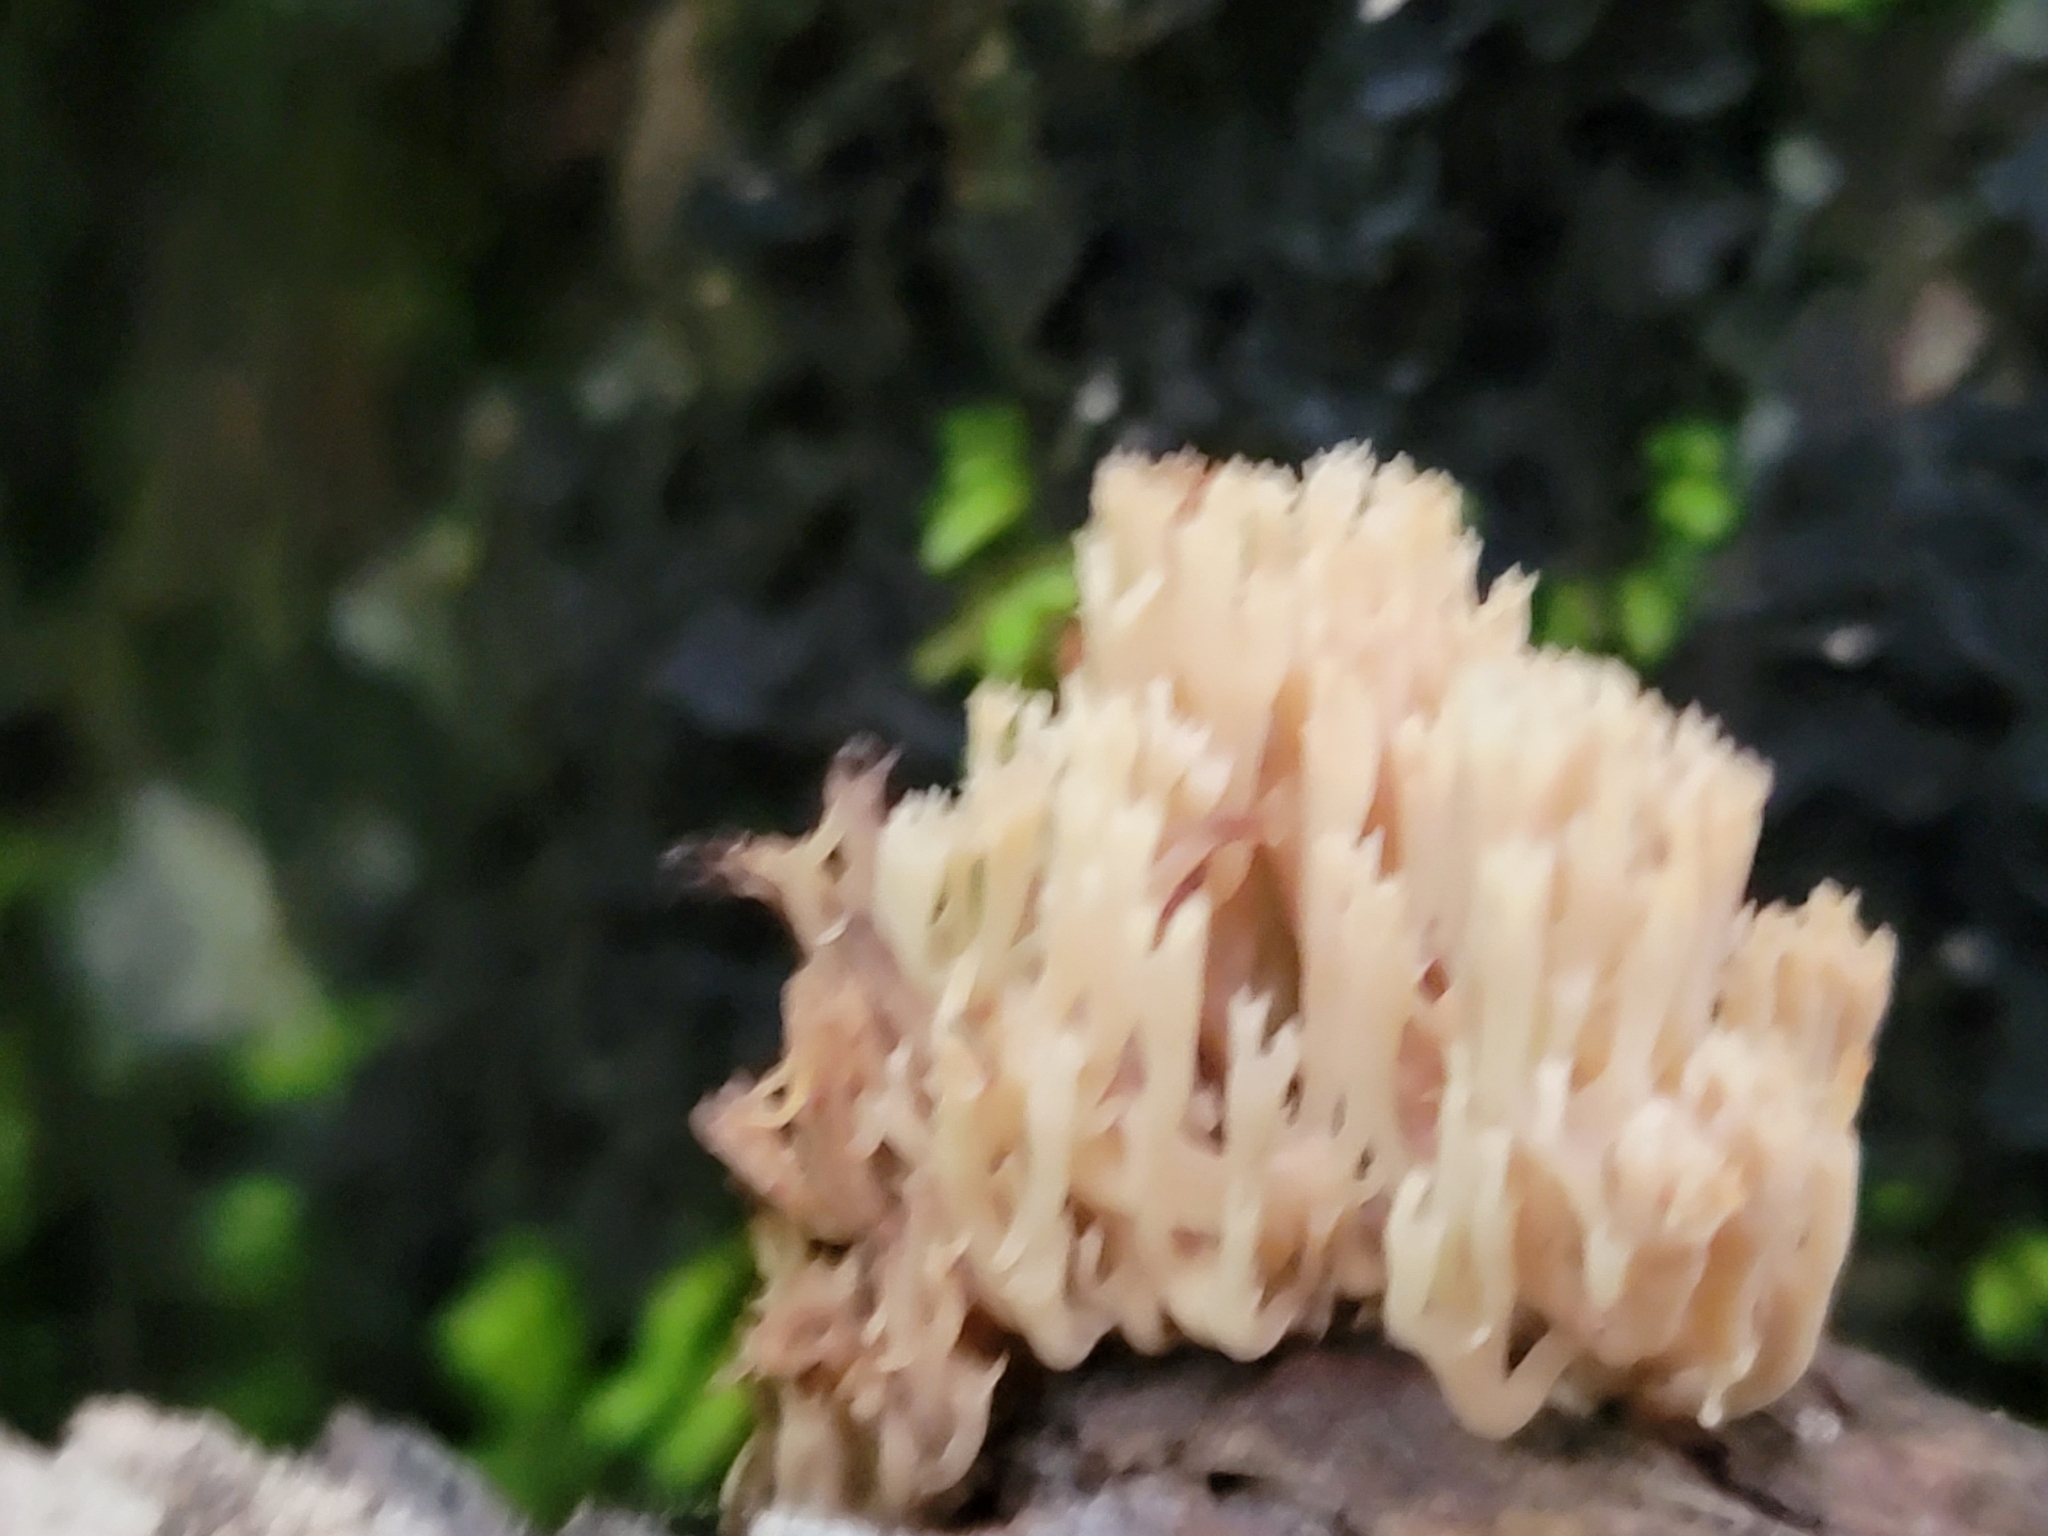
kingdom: Fungi
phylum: Basidiomycota
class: Agaricomycetes
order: Russulales
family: Auriscalpiaceae
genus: Artomyces
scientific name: Artomyces pyxidatus
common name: Crown-tipped coral fungus
